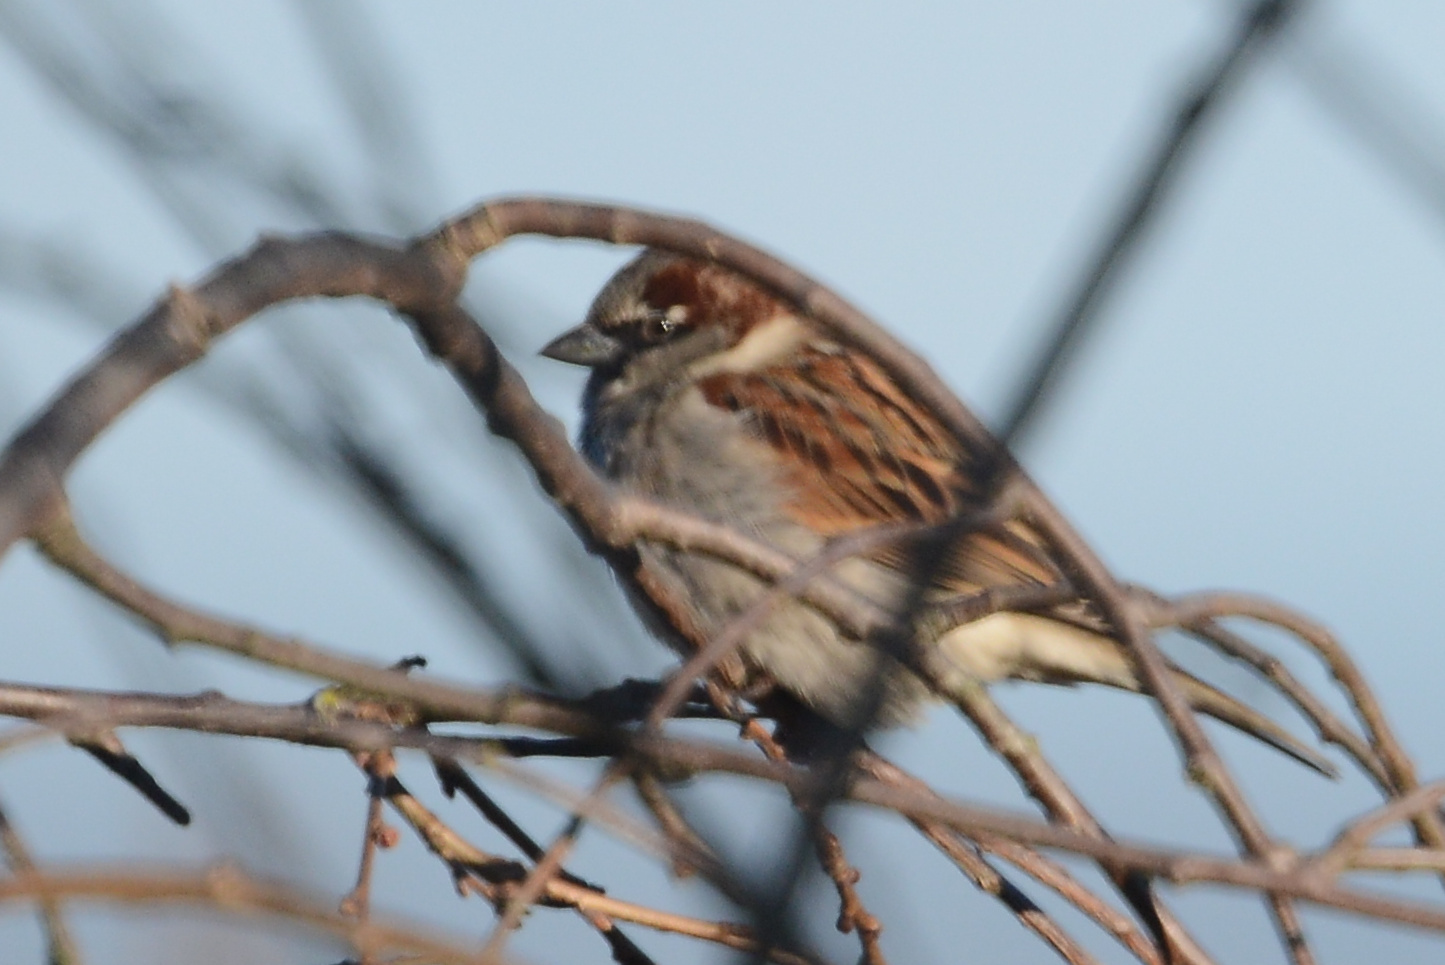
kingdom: Animalia
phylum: Chordata
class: Aves
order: Passeriformes
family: Passeridae
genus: Passer
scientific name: Passer domesticus
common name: House sparrow
